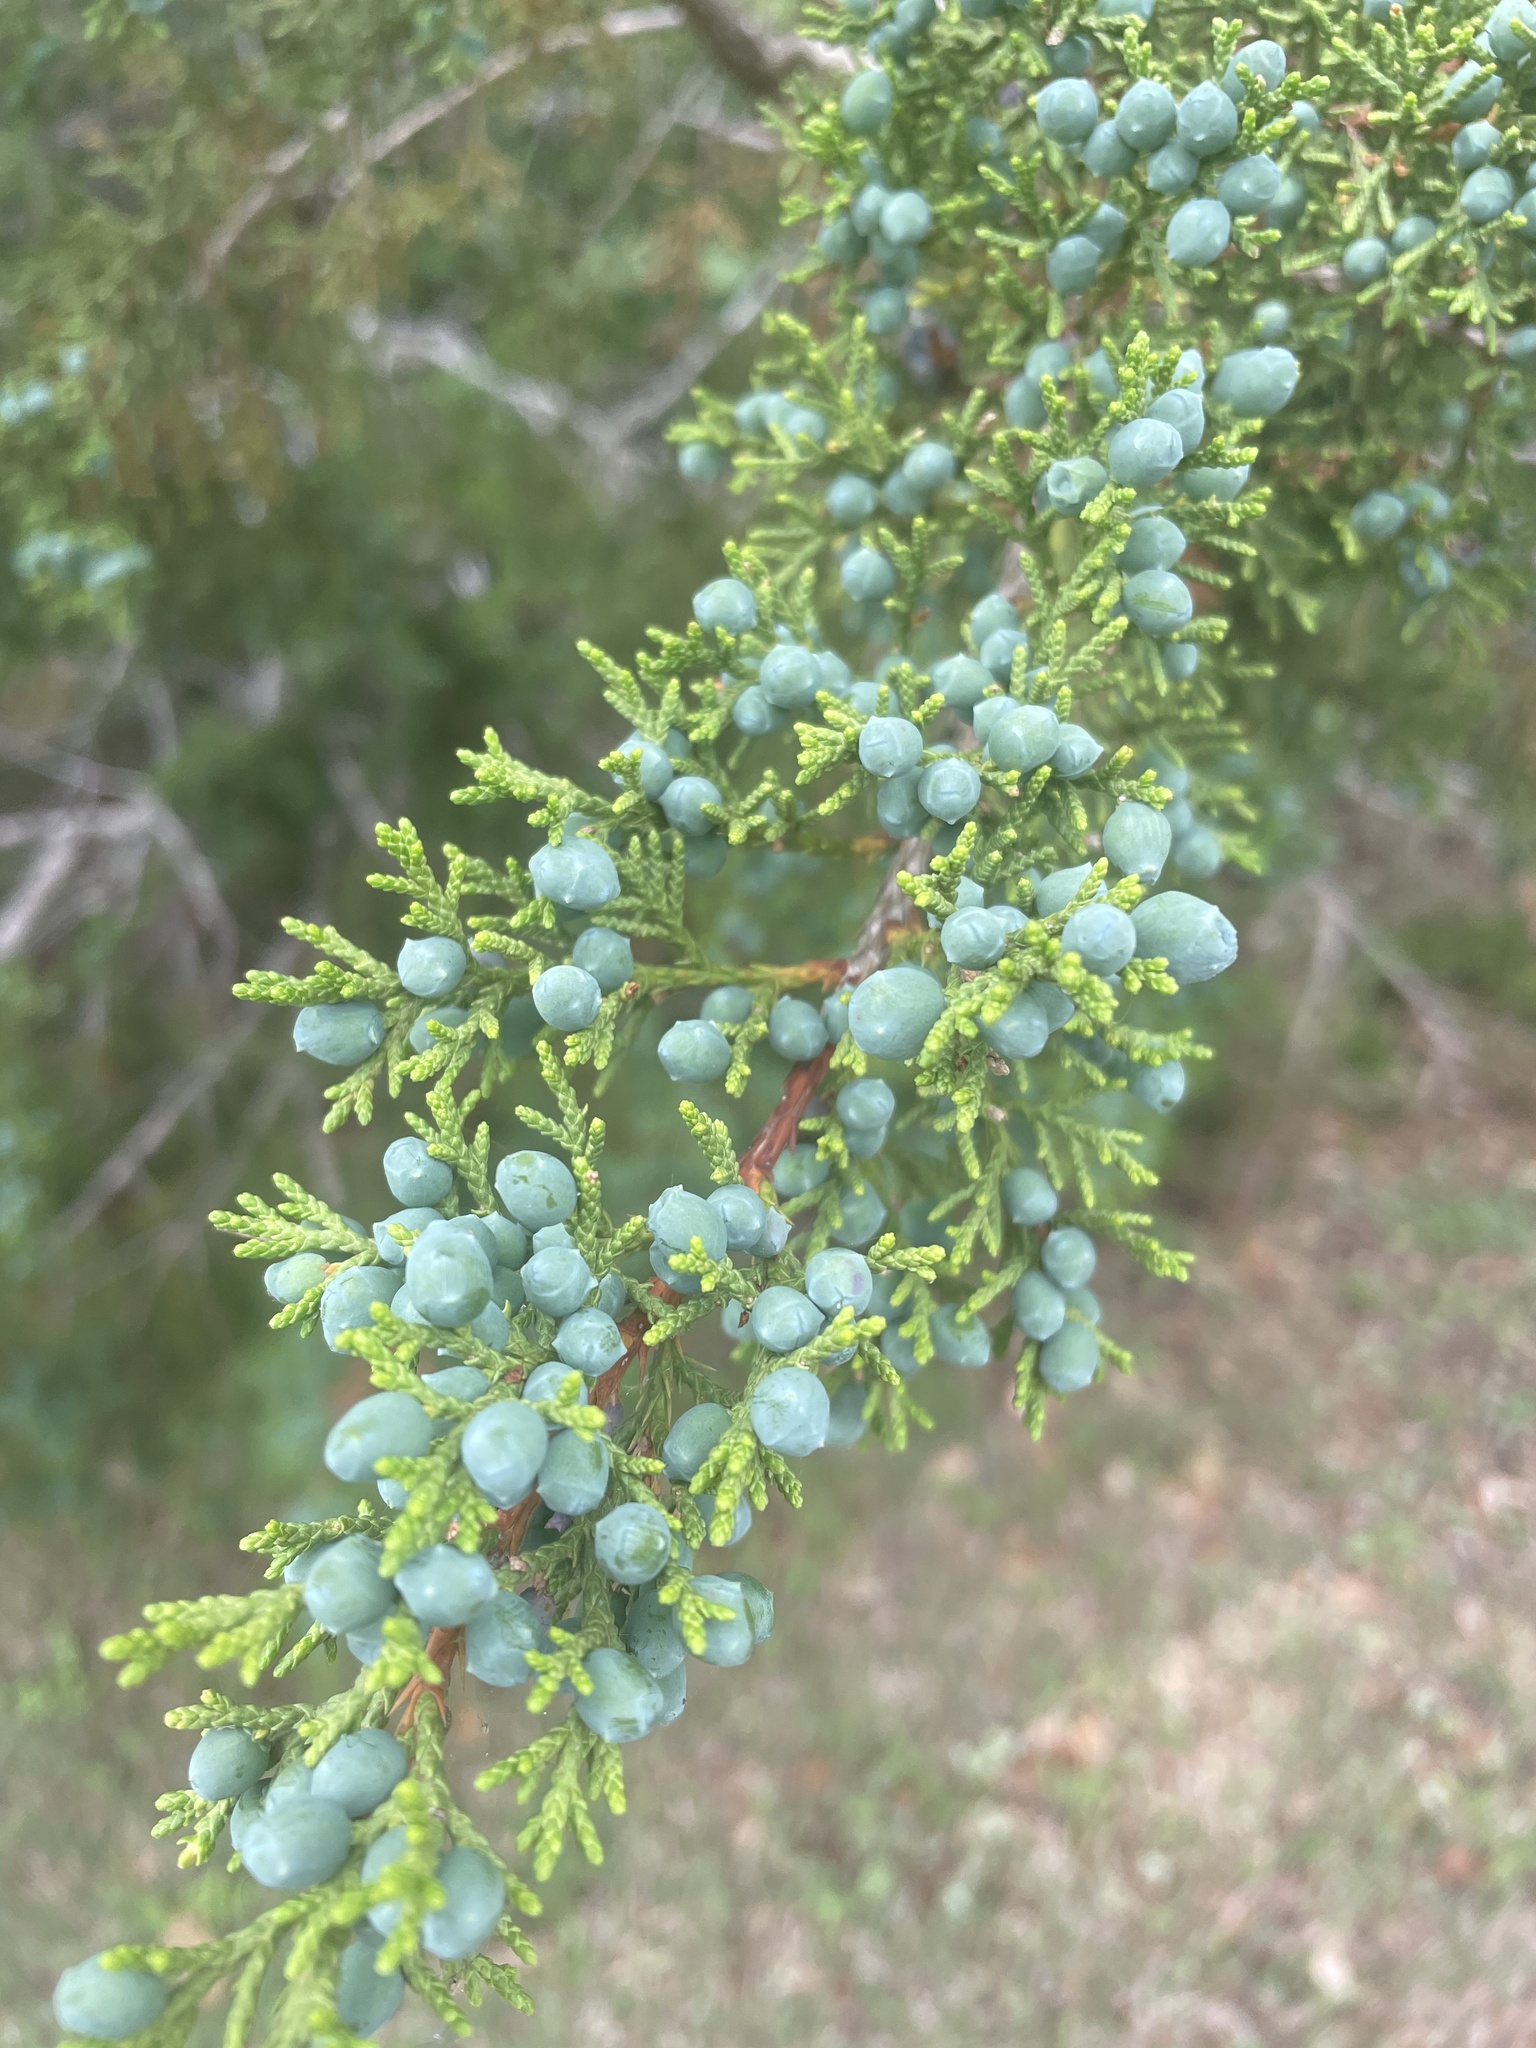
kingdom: Plantae
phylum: Tracheophyta
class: Pinopsida
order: Pinales
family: Cupressaceae
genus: Juniperus
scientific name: Juniperus ashei
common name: Mexican juniper
